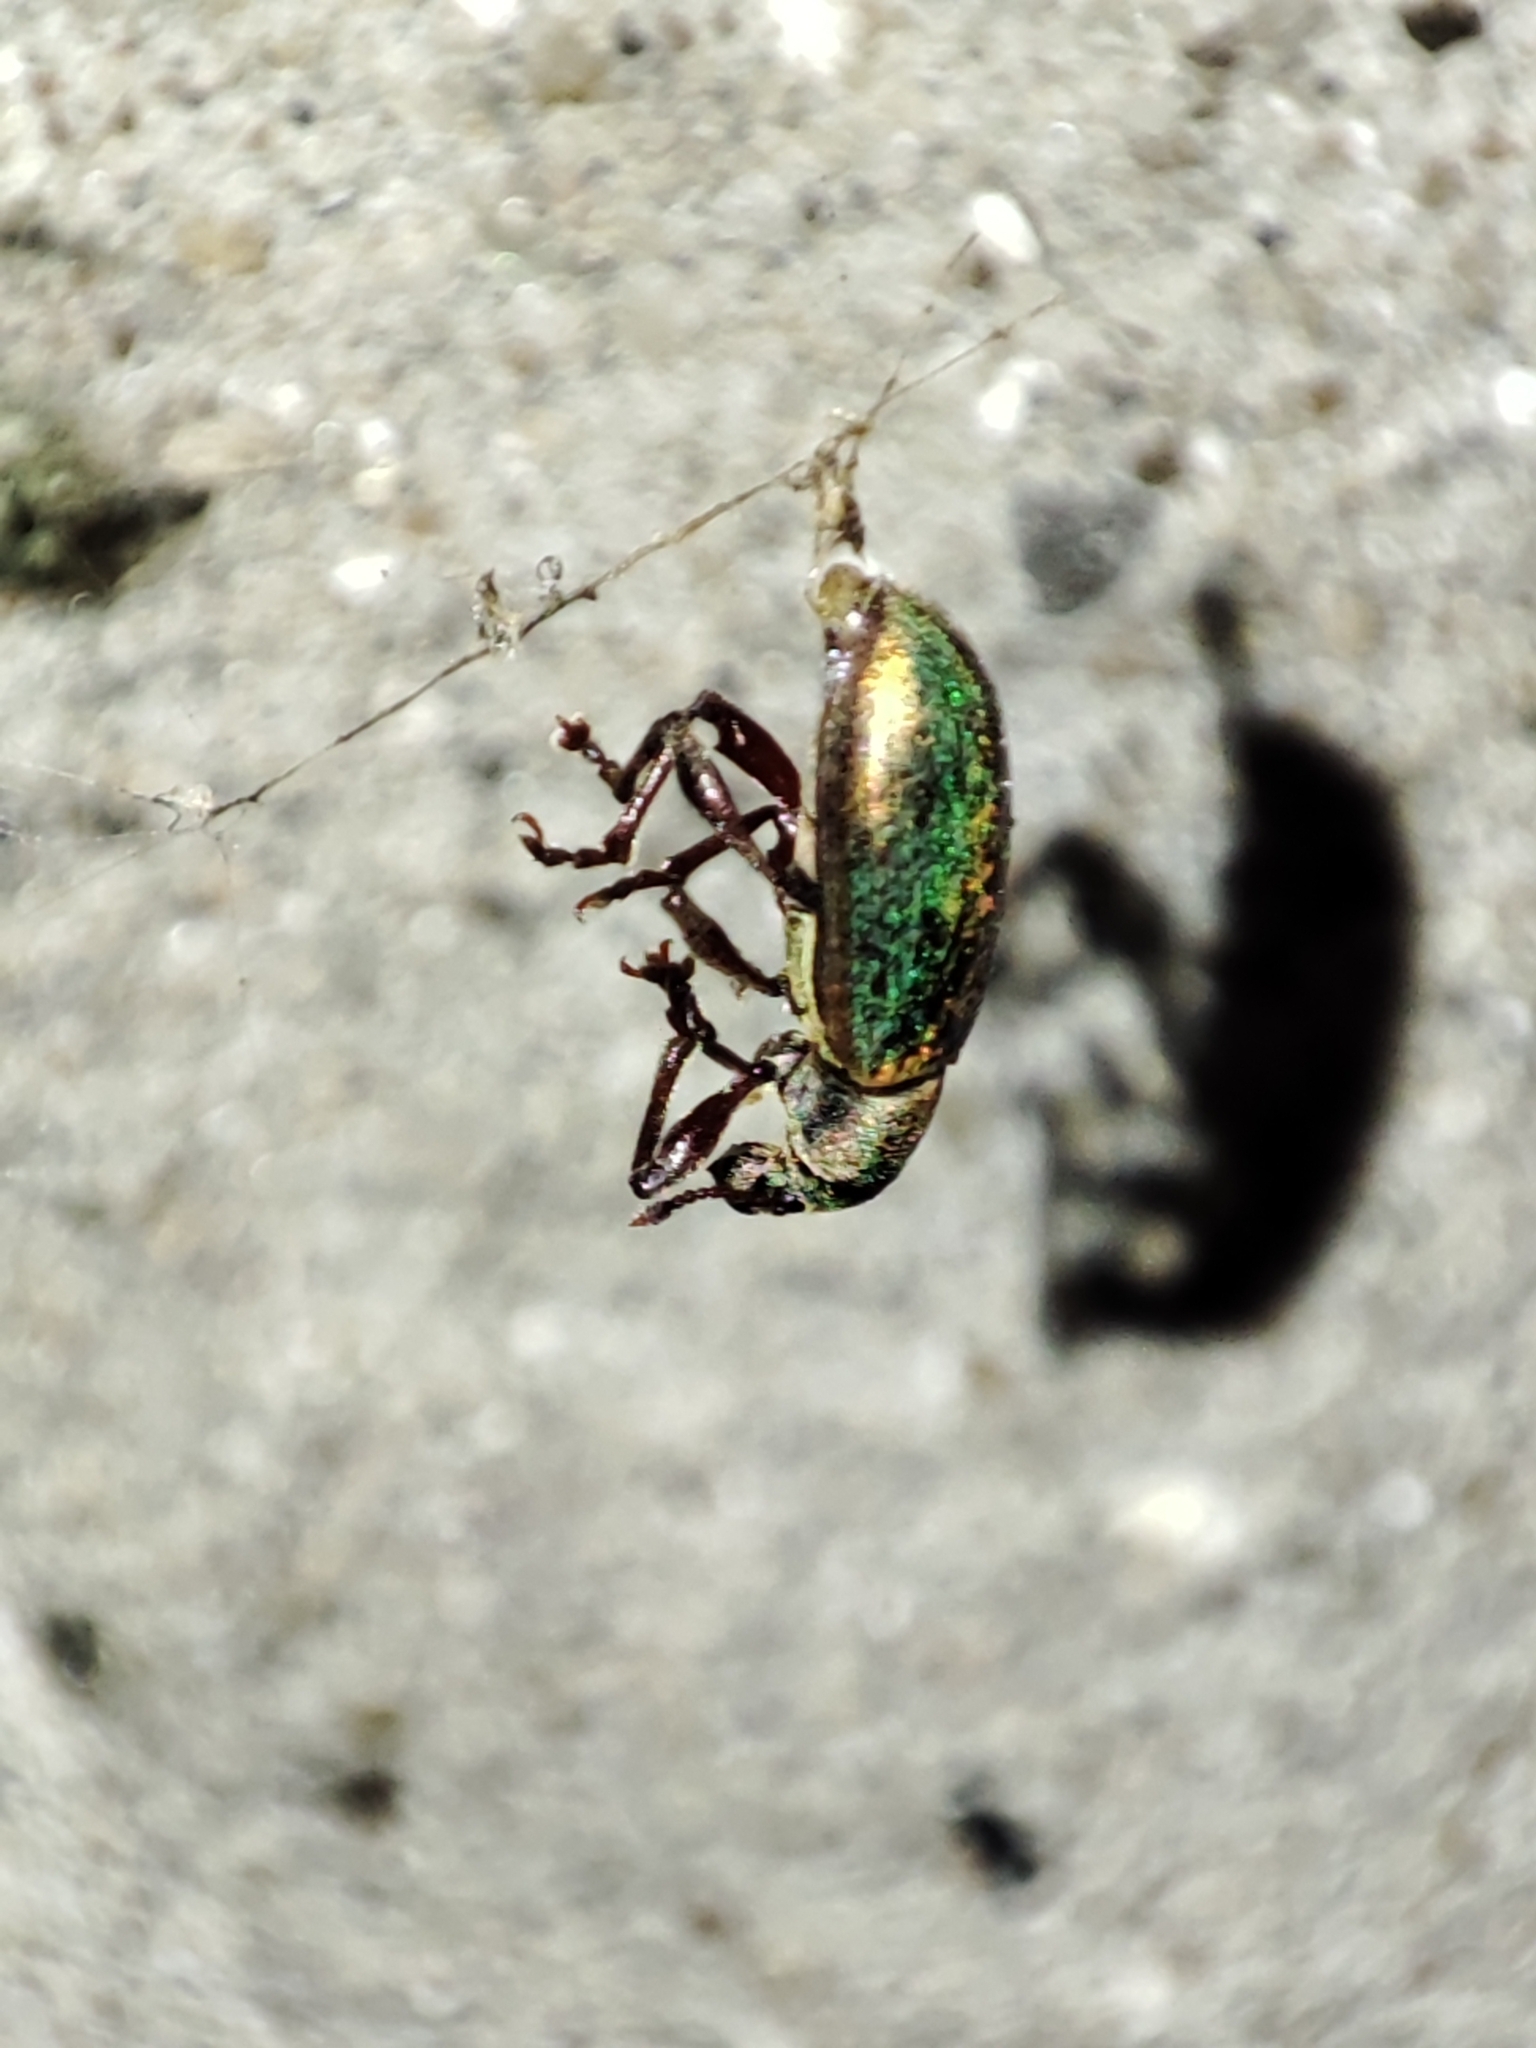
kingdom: Animalia
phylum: Arthropoda
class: Insecta
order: Coleoptera
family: Curculionidae
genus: Polydrusus
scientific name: Polydrusus viridinitens
